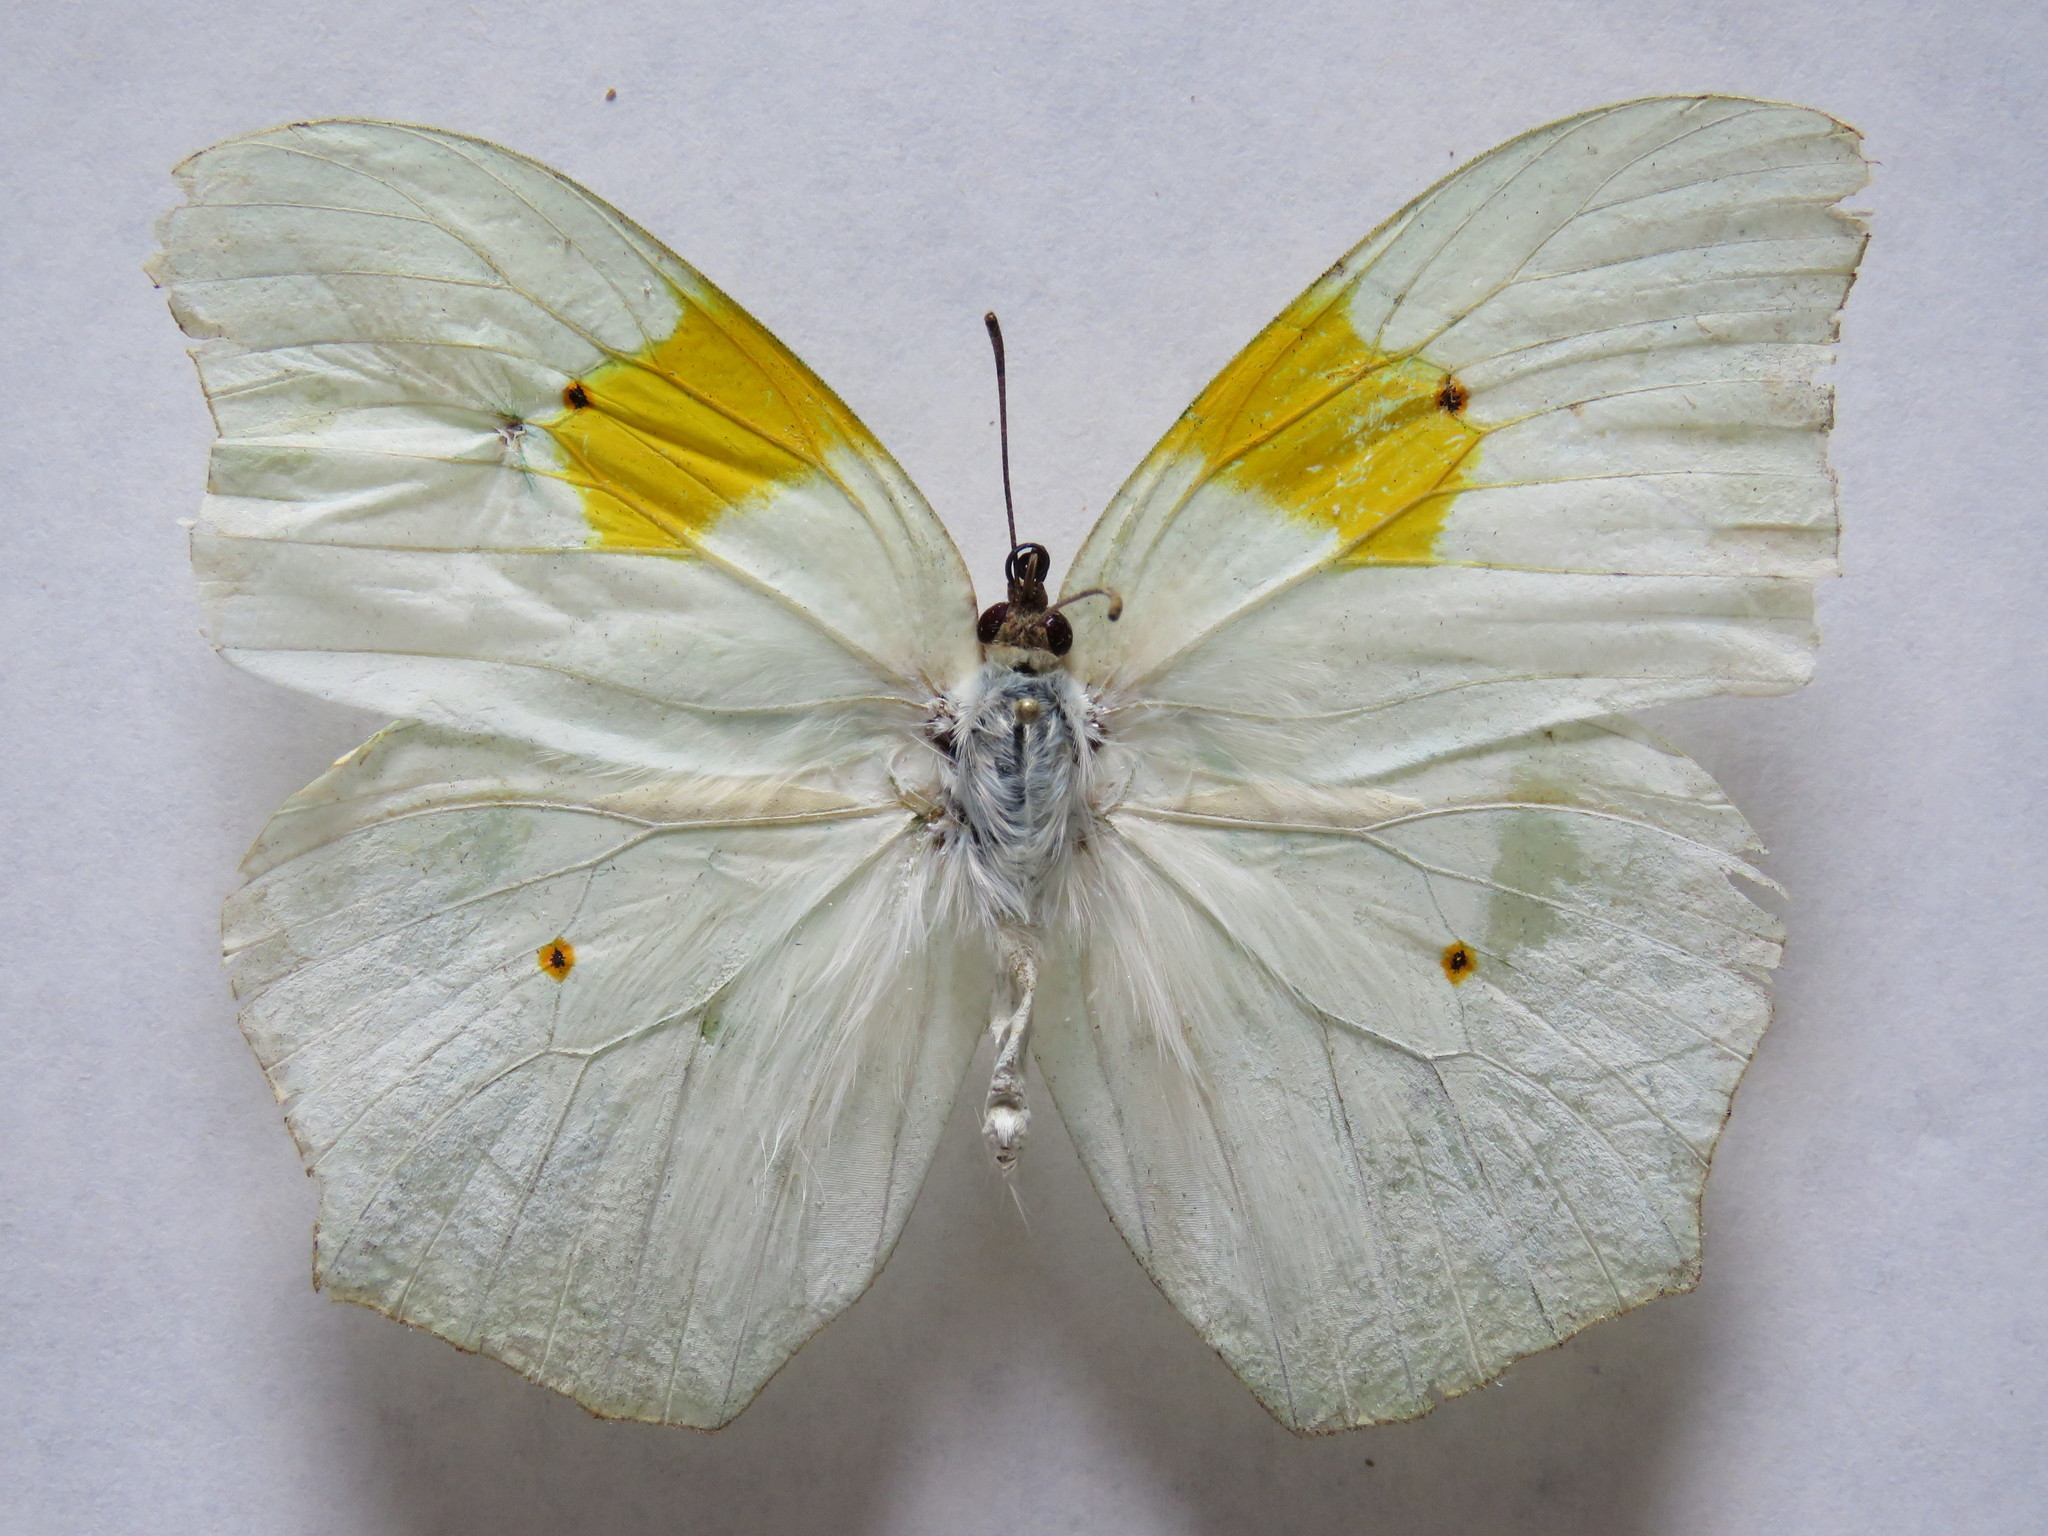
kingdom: Animalia
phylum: Arthropoda
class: Insecta
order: Lepidoptera
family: Pieridae
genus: Anteos
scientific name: Anteos clorinde
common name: White angled sulphur
